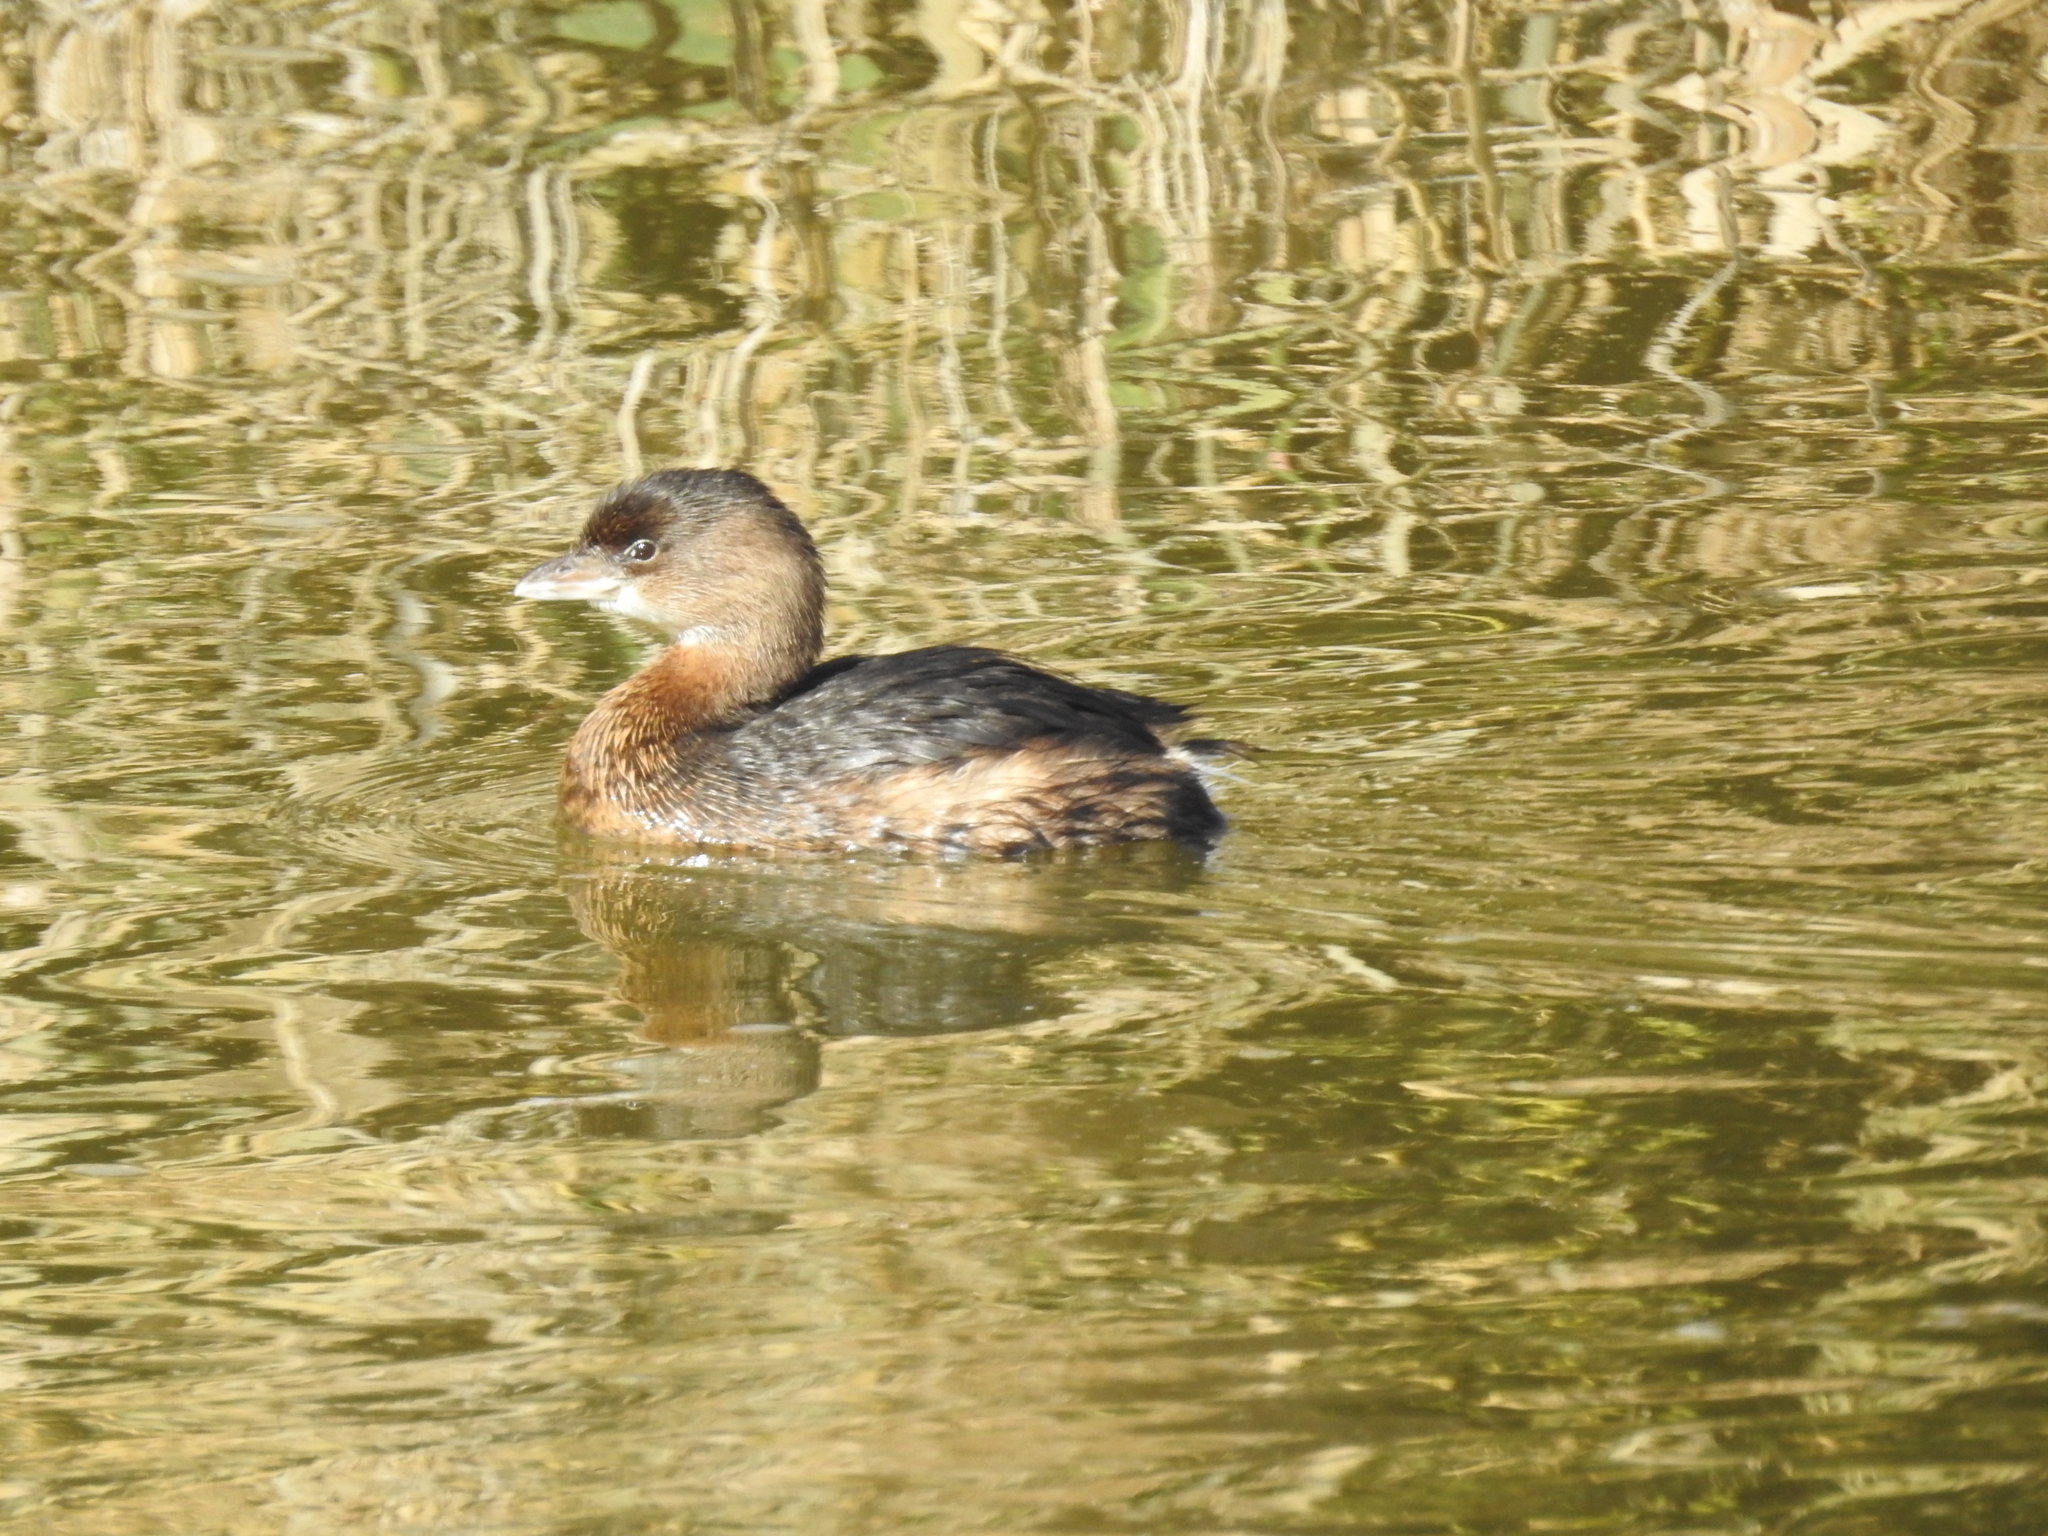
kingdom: Animalia
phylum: Chordata
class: Aves
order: Podicipediformes
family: Podicipedidae
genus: Podilymbus
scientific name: Podilymbus podiceps
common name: Pied-billed grebe
